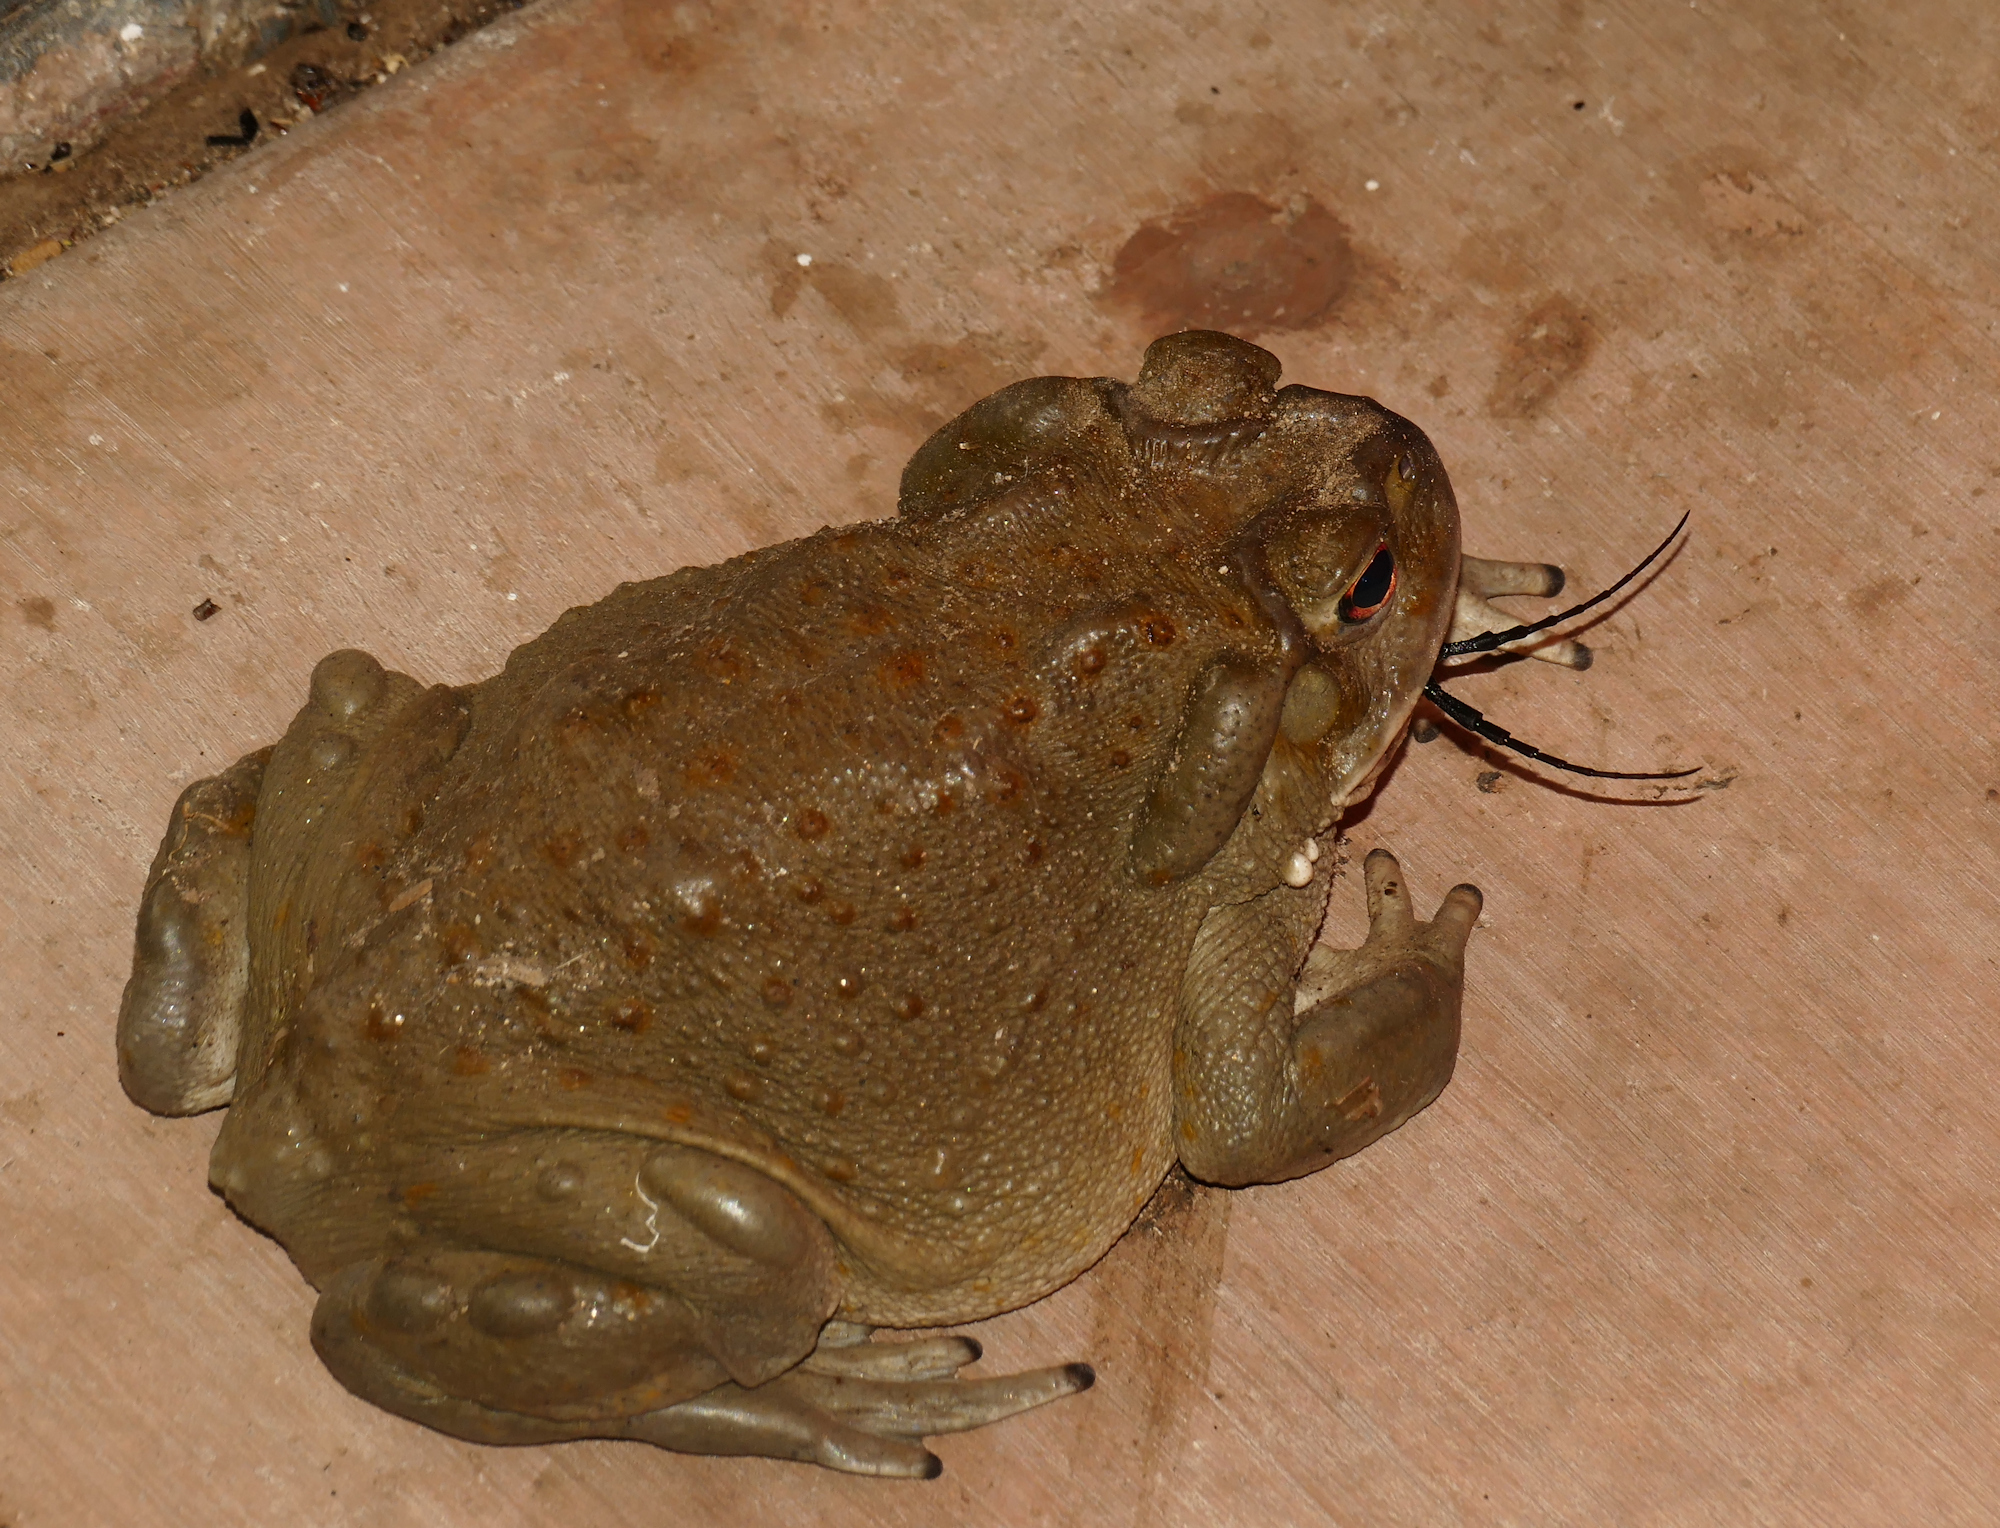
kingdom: Animalia
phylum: Chordata
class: Amphibia
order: Anura
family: Bufonidae
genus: Incilius
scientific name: Incilius alvarius
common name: Sonoran desert toad
